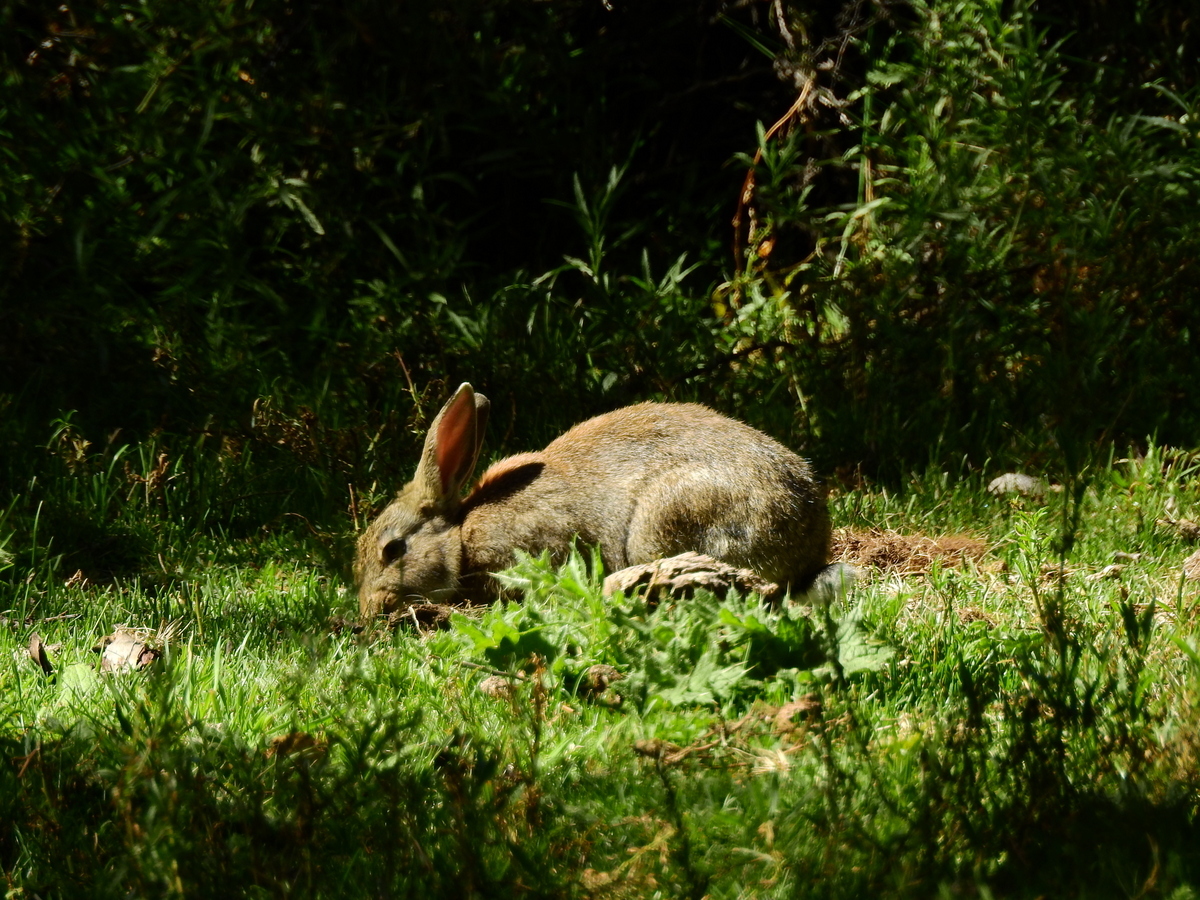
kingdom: Animalia
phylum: Chordata
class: Mammalia
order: Lagomorpha
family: Leporidae
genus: Oryctolagus
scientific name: Oryctolagus cuniculus
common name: European rabbit
